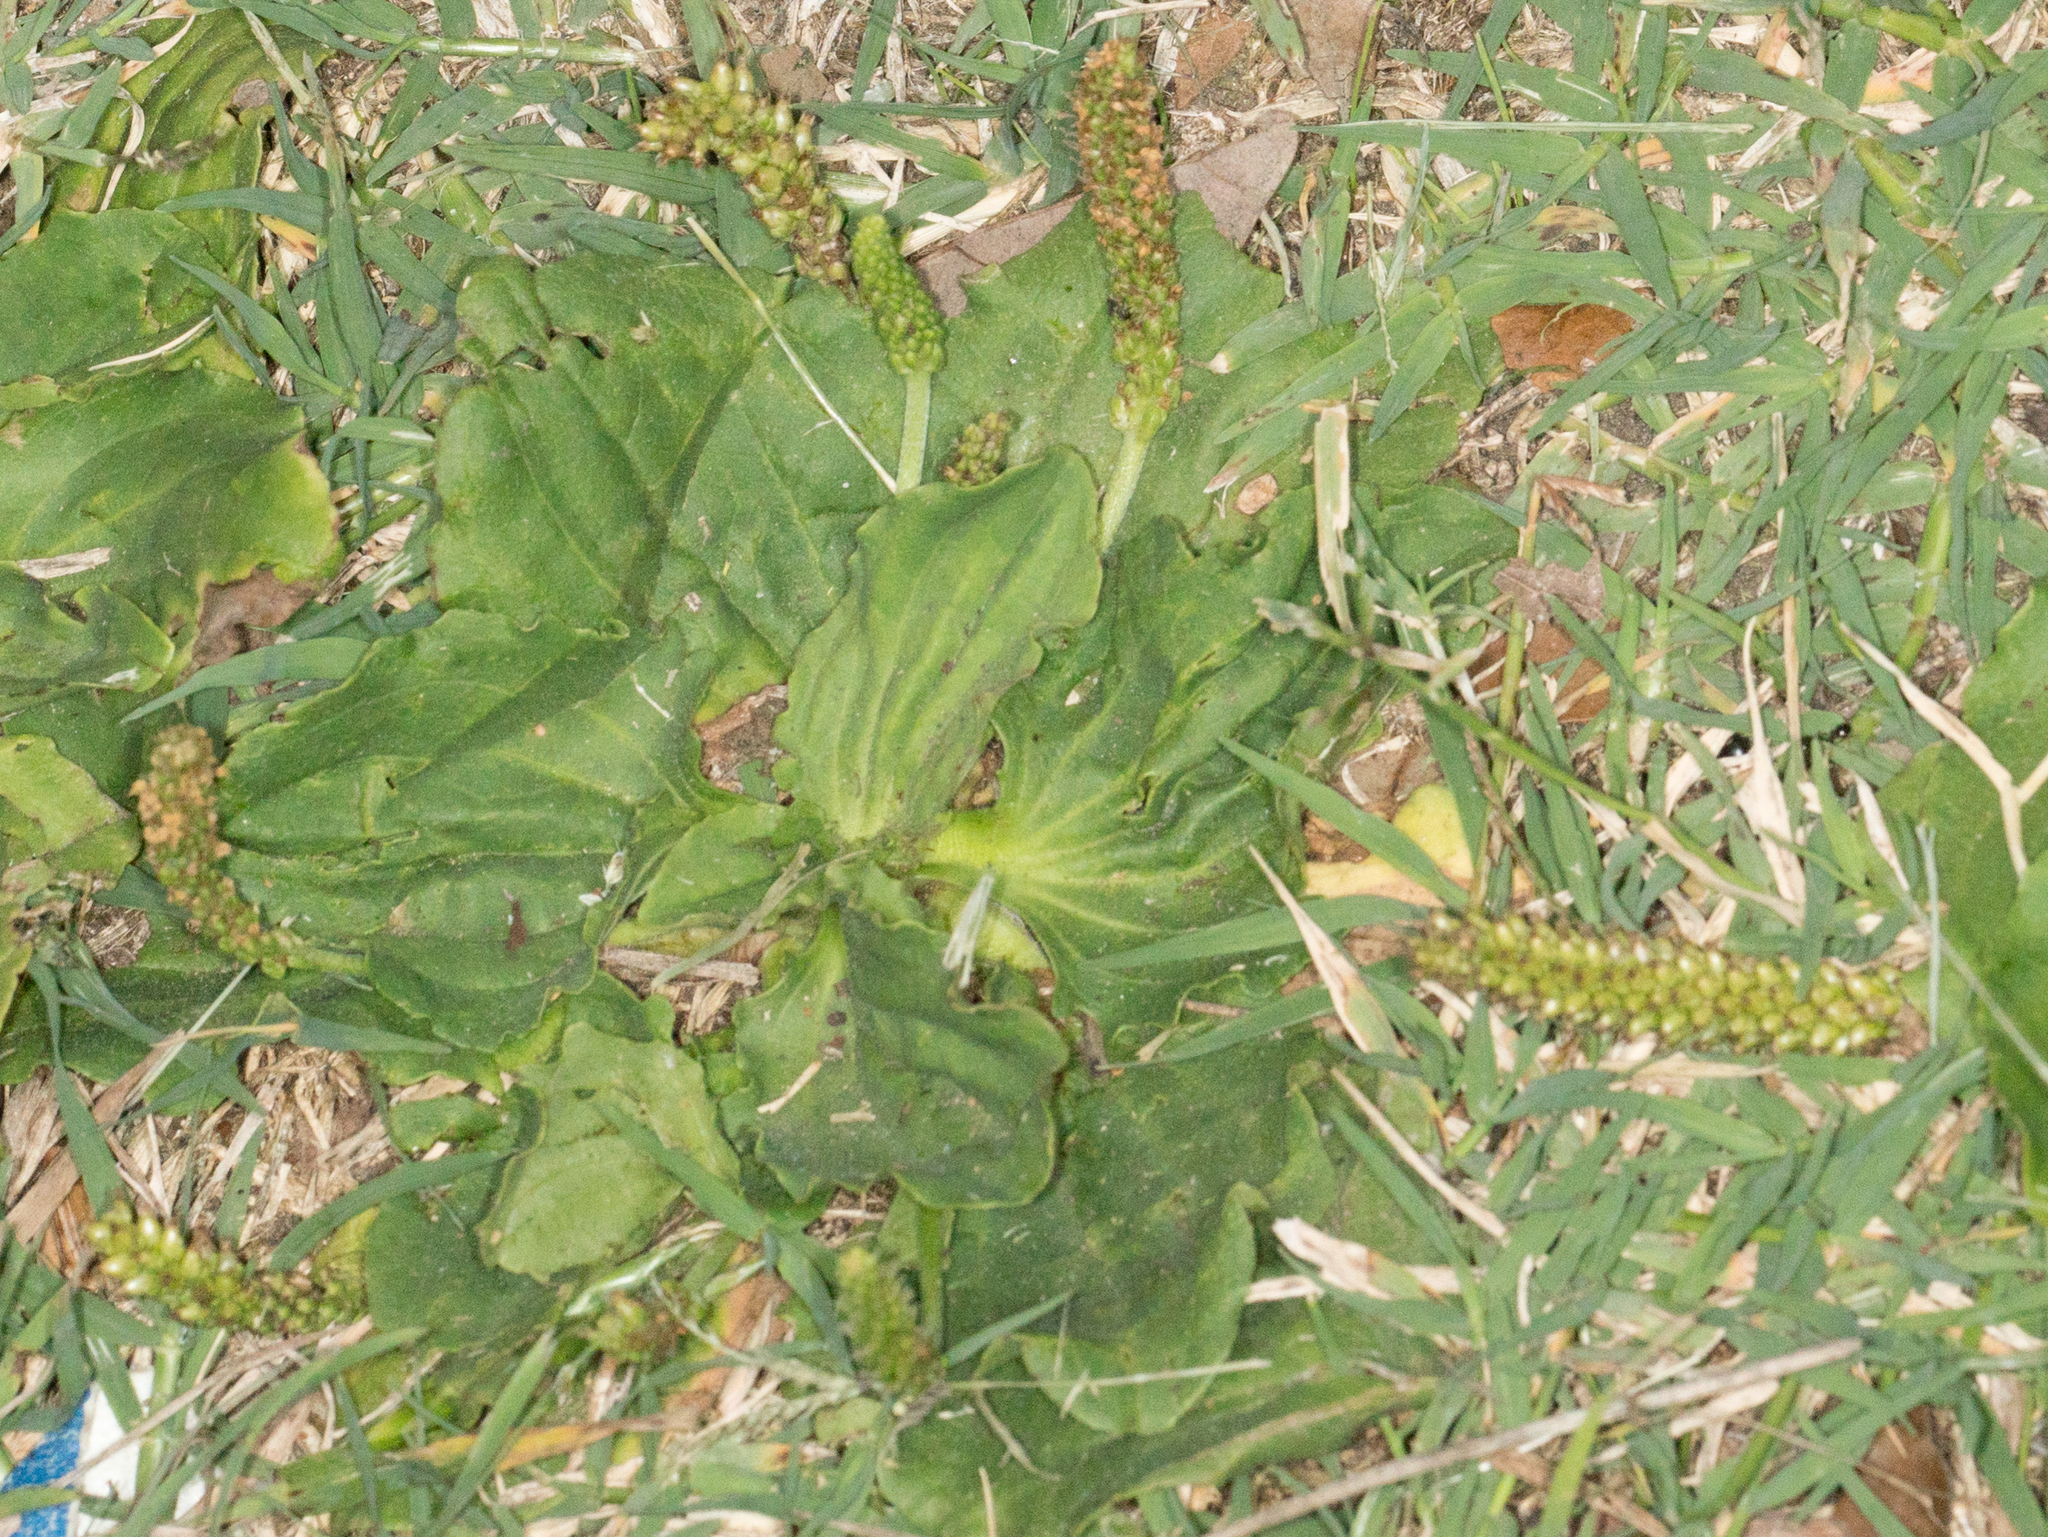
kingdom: Plantae
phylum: Tracheophyta
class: Magnoliopsida
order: Lamiales
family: Plantaginaceae
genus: Plantago
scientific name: Plantago major
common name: Common plantain
